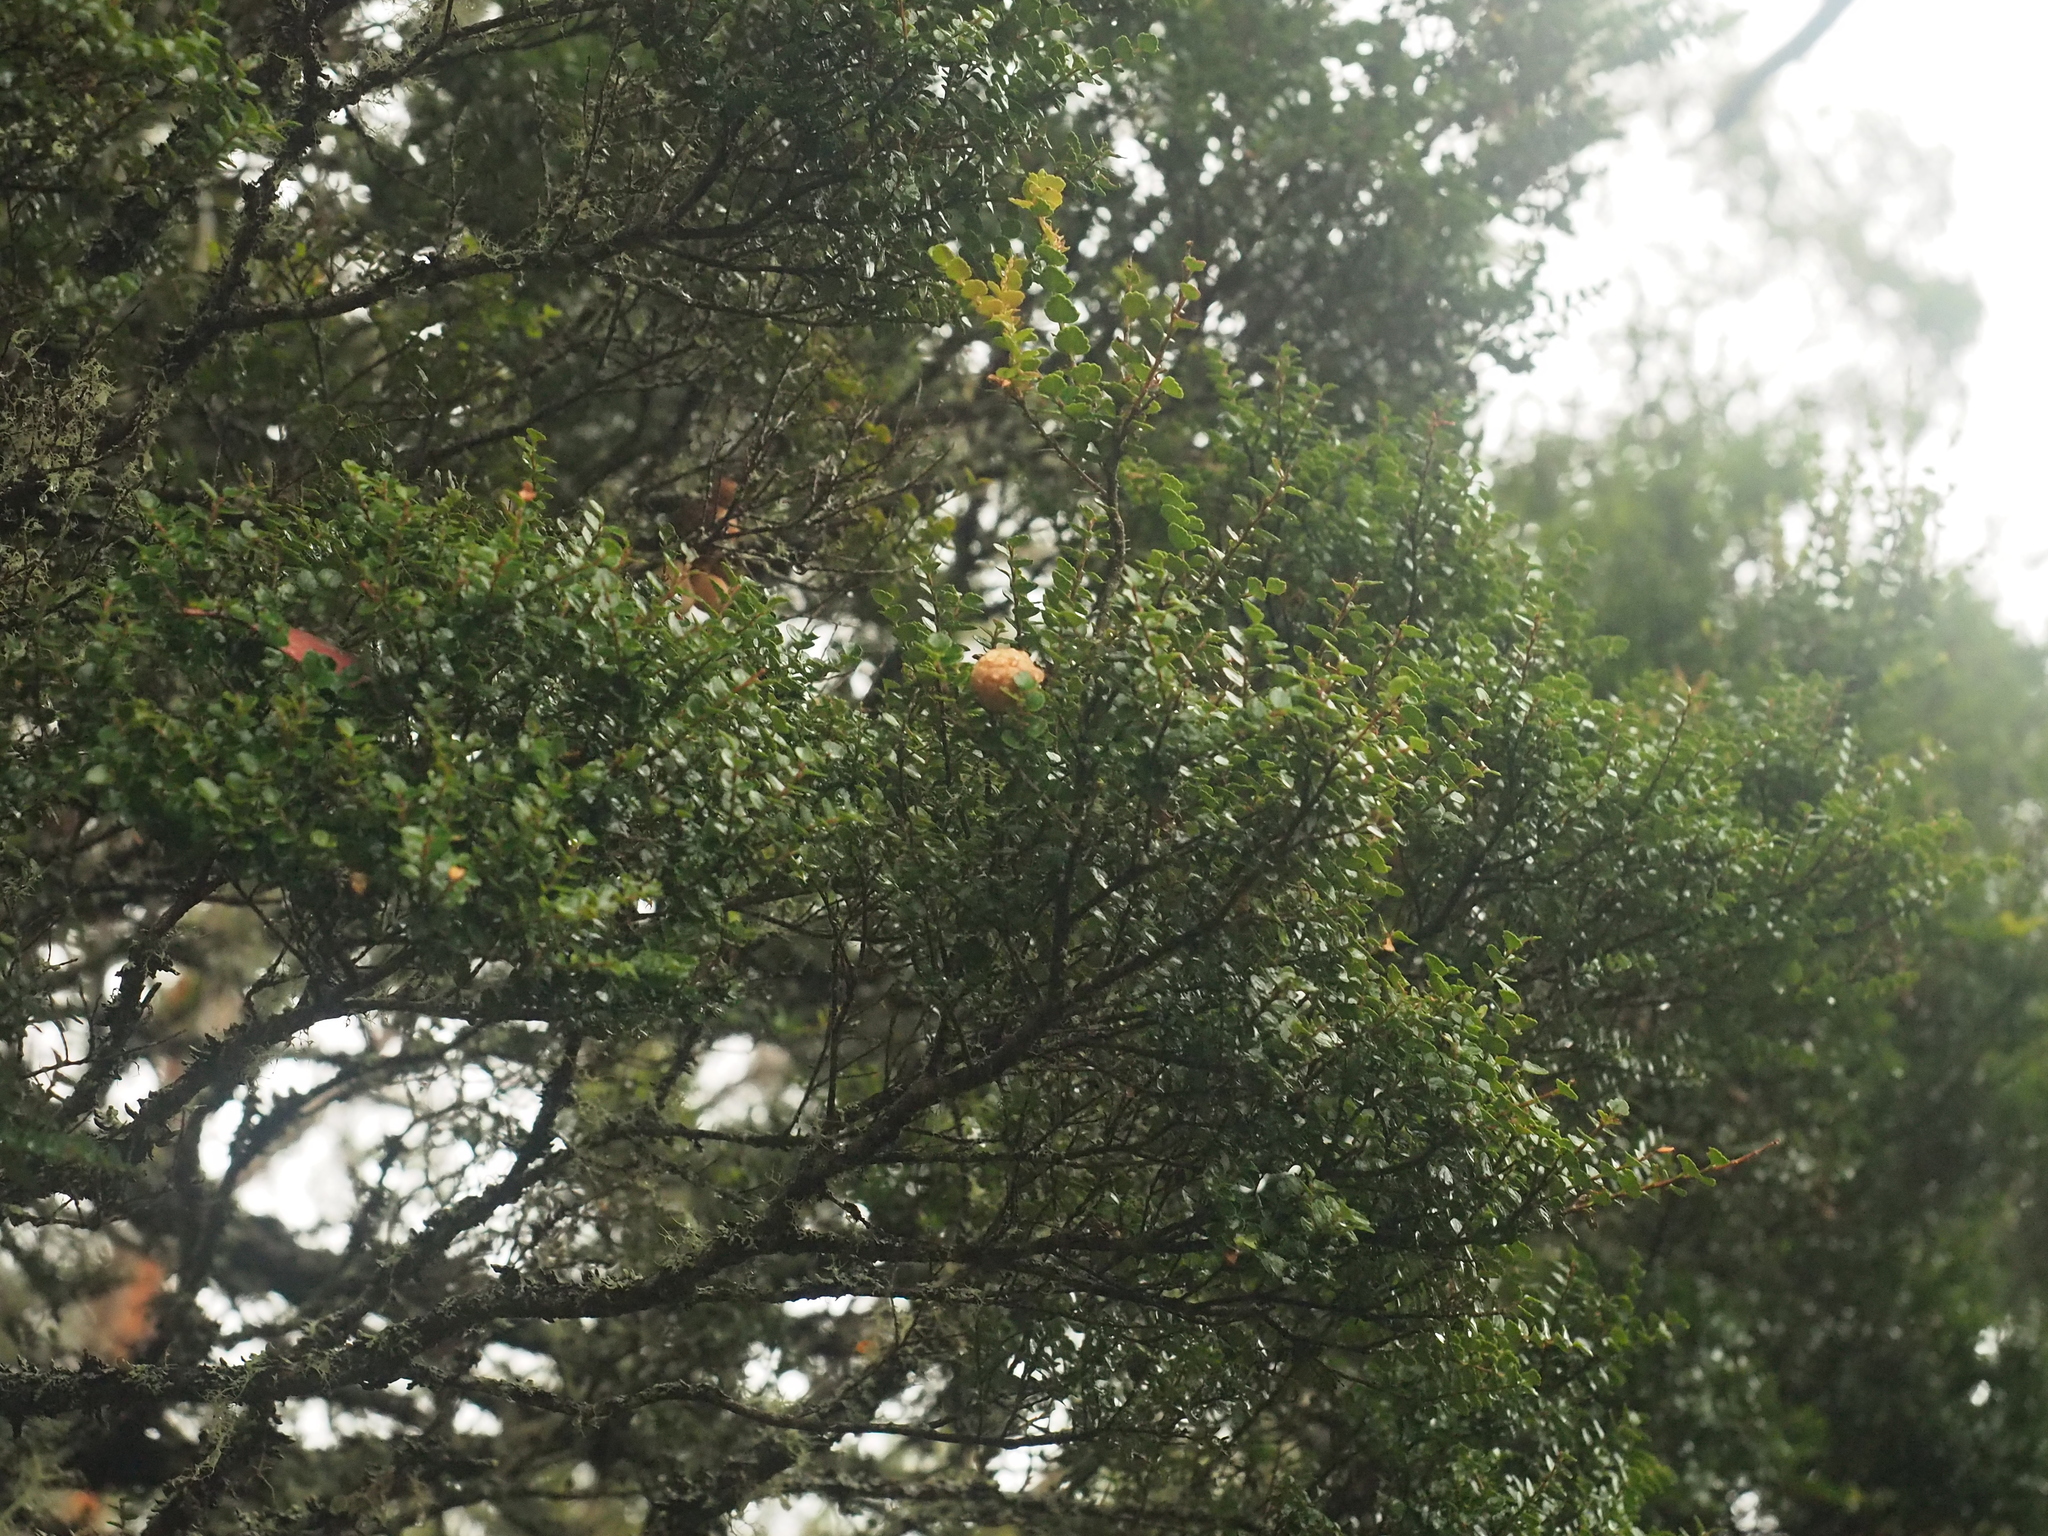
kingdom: Fungi
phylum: Ascomycota
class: Leotiomycetes
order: Cyttariales
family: Cyttariaceae
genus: Cyttaria
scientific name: Cyttaria gunnii
